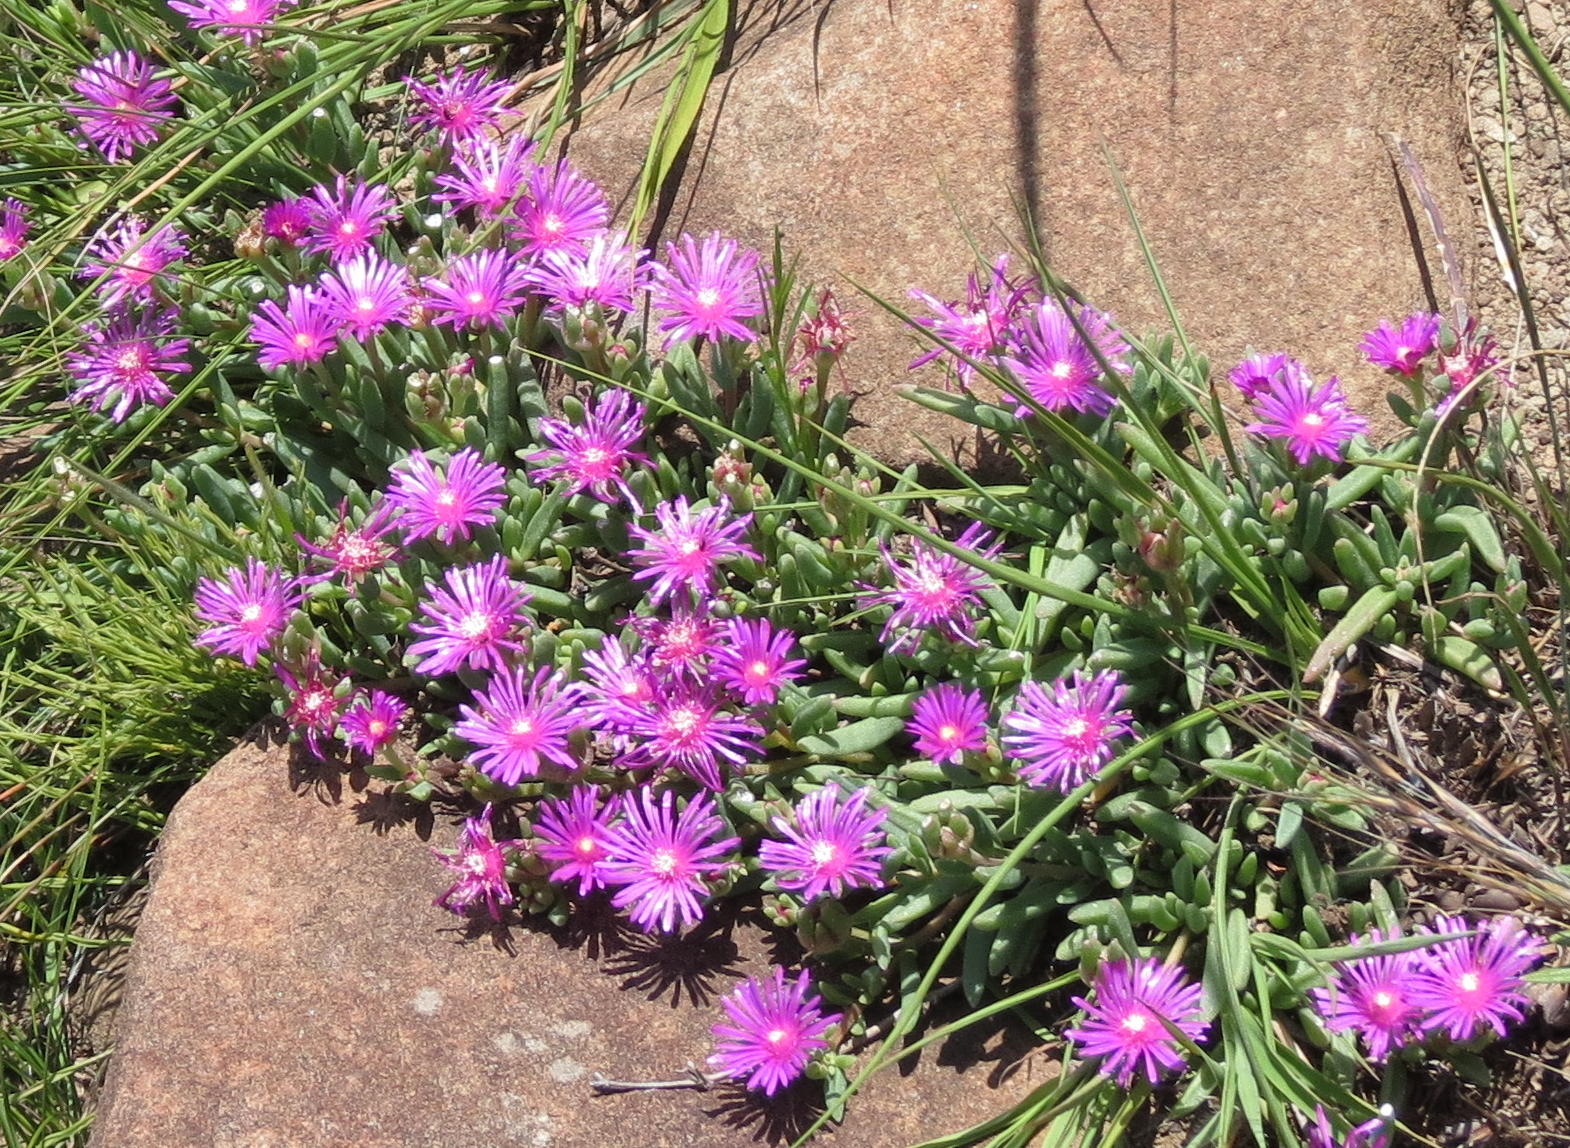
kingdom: Plantae
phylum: Tracheophyta
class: Magnoliopsida
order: Caryophyllales
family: Aizoaceae
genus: Delosperma
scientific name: Delosperma lavisiae
